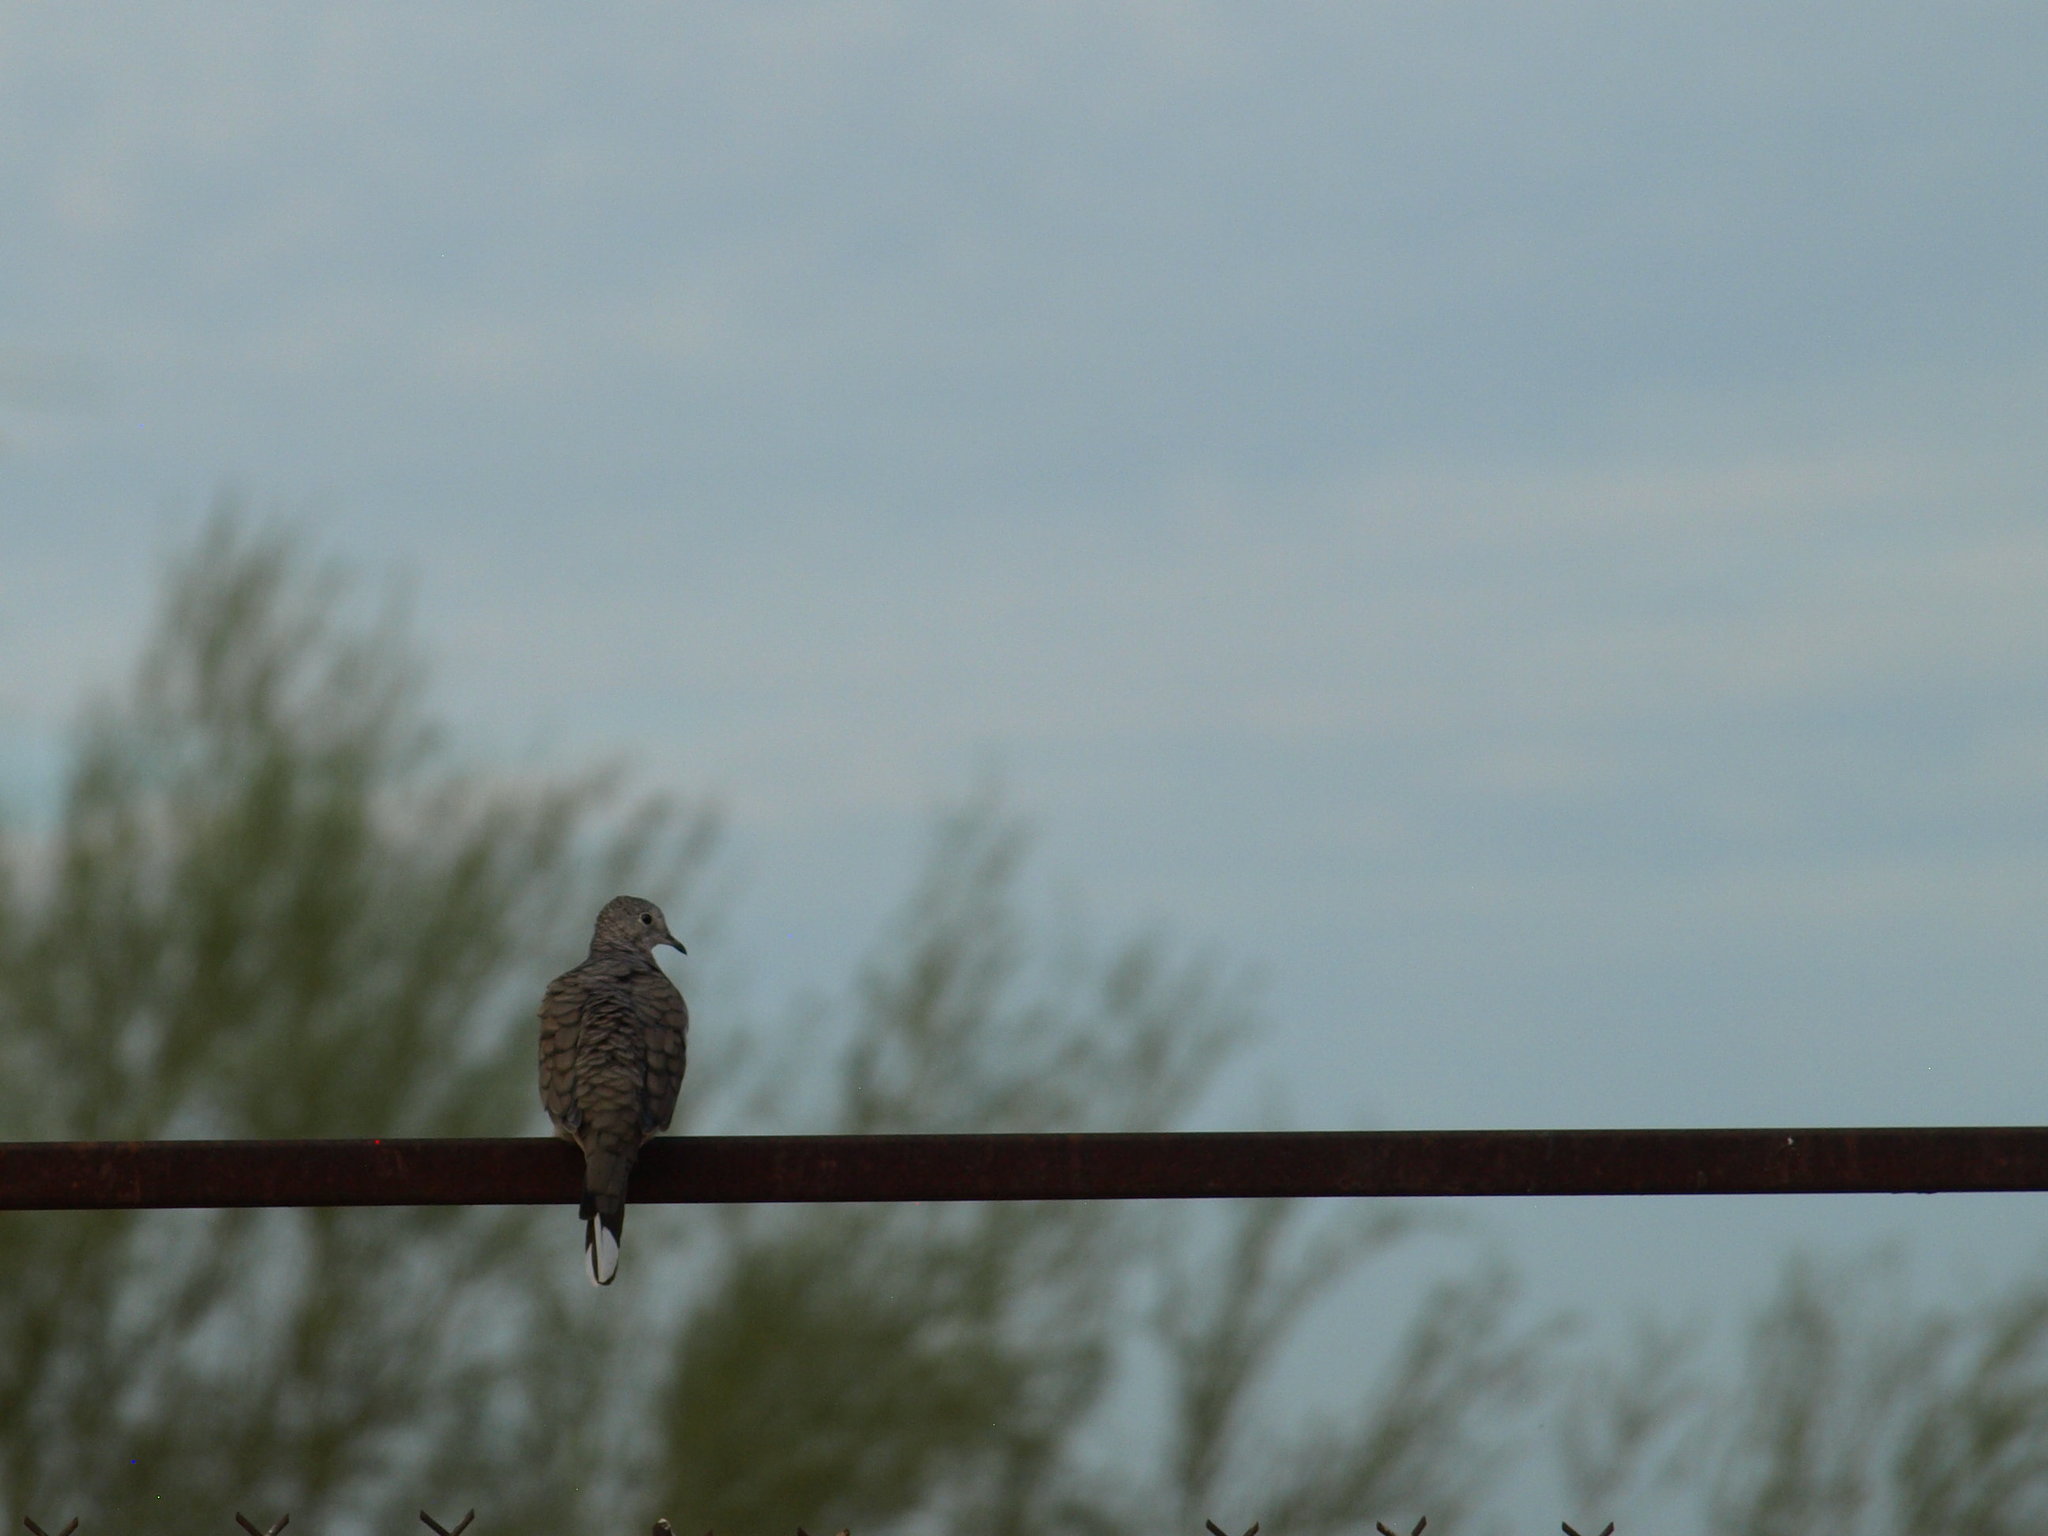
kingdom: Animalia
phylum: Chordata
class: Aves
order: Columbiformes
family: Columbidae
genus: Columbina
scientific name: Columbina inca
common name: Inca dove
